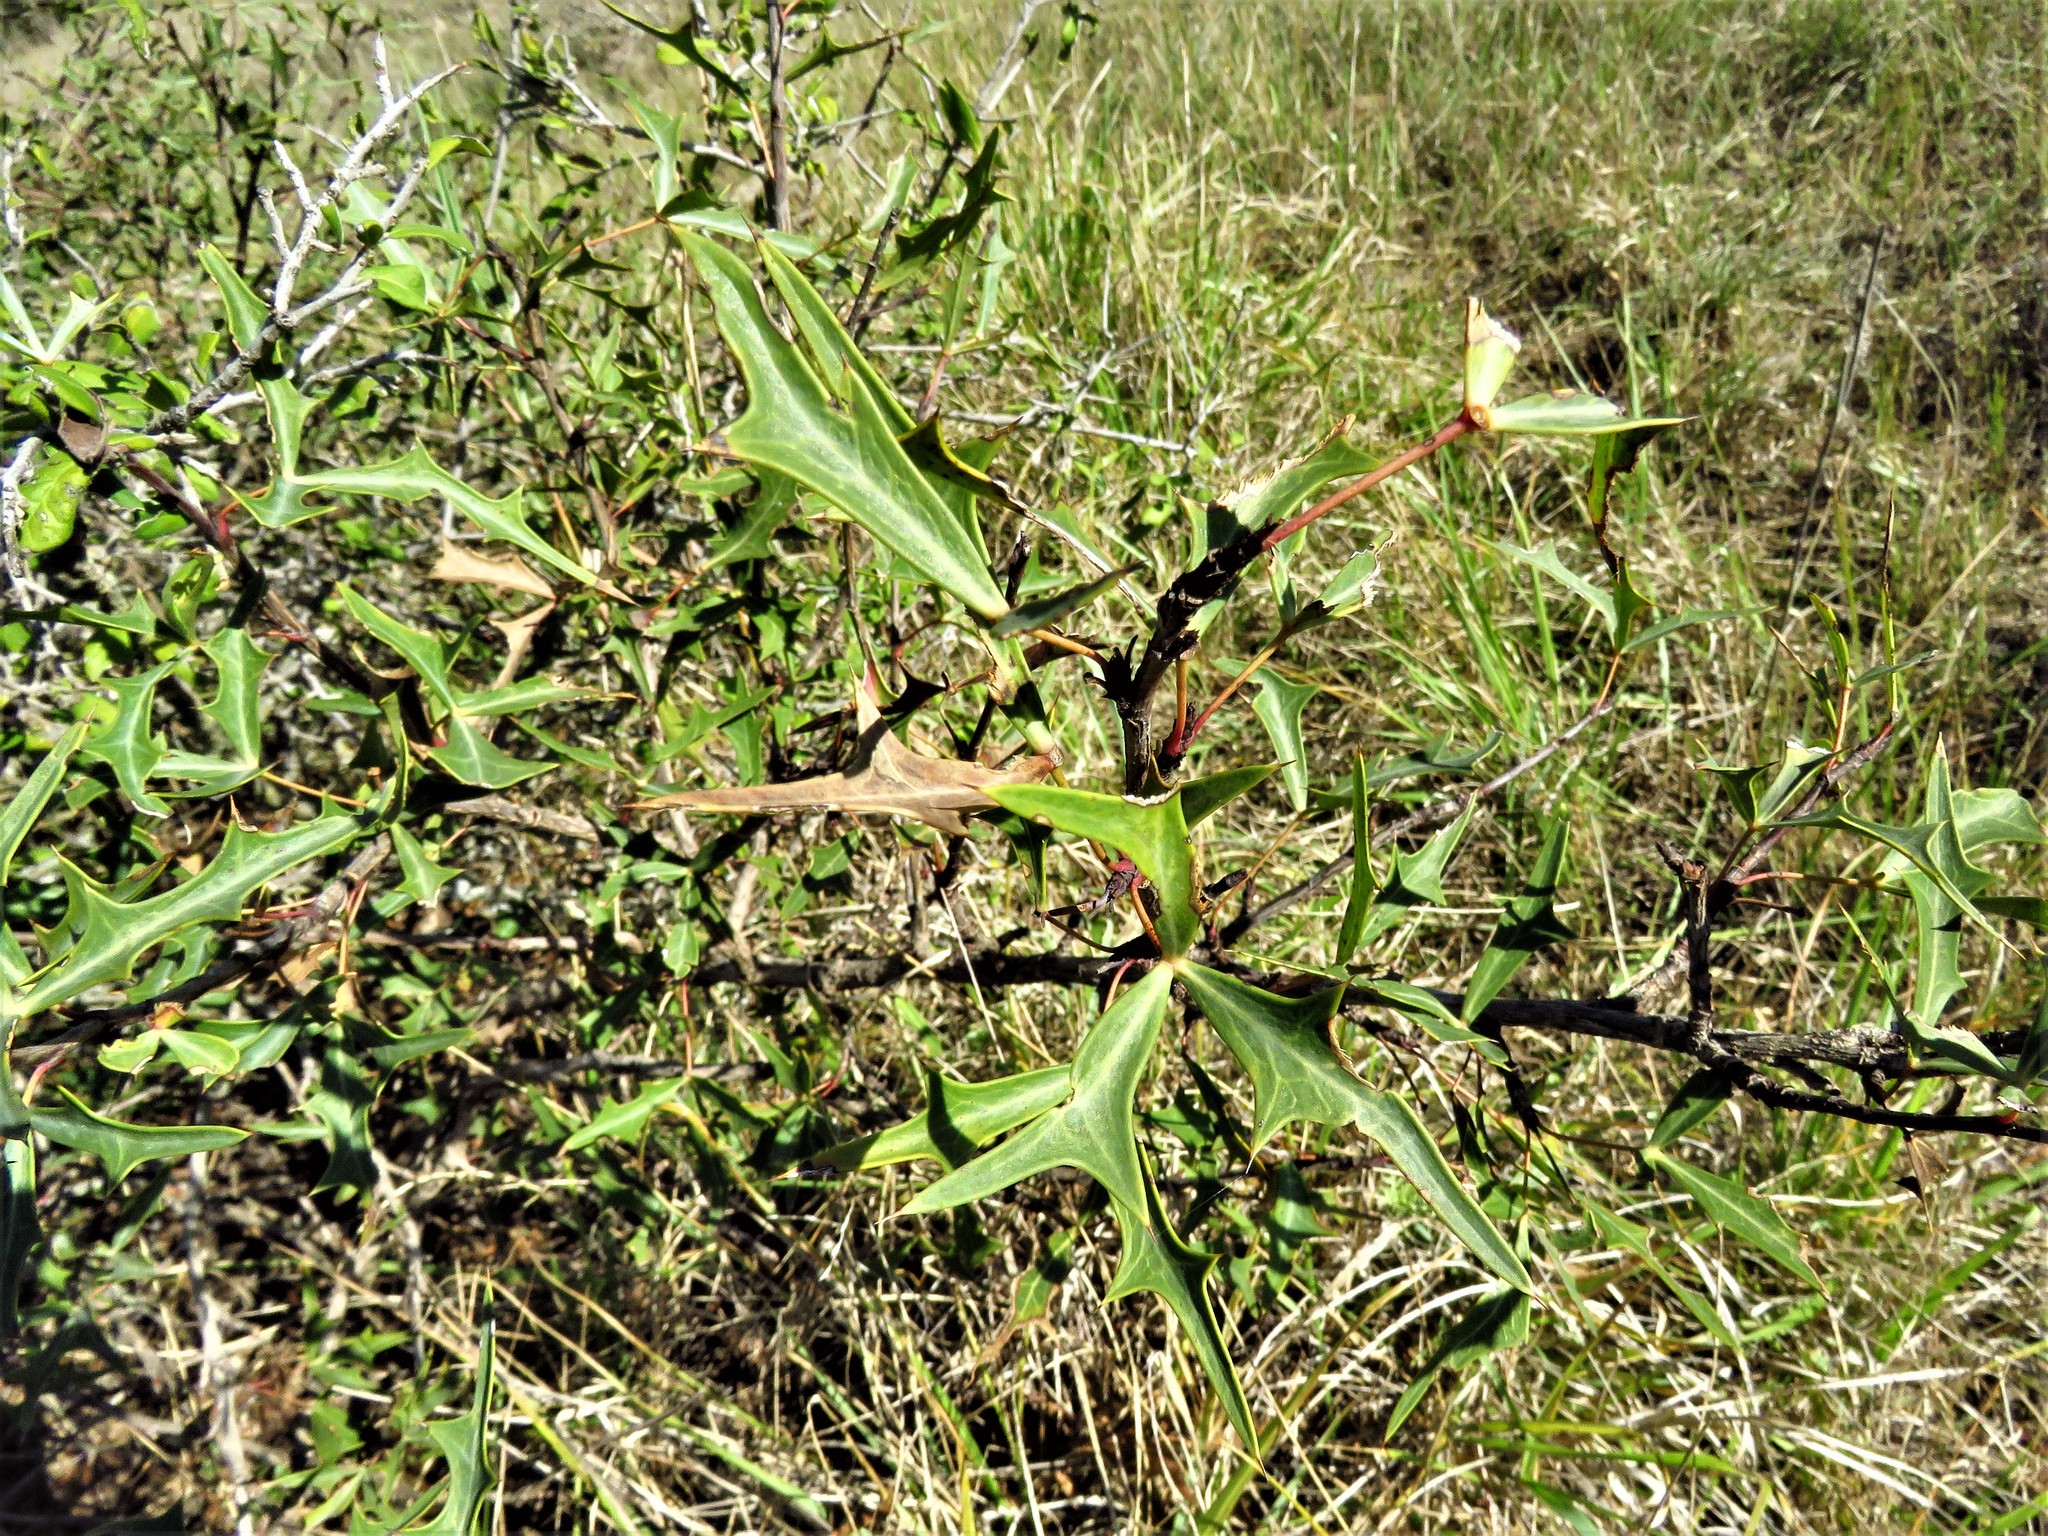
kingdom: Plantae
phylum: Tracheophyta
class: Magnoliopsida
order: Ranunculales
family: Berberidaceae
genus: Alloberberis
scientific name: Alloberberis trifoliolata
